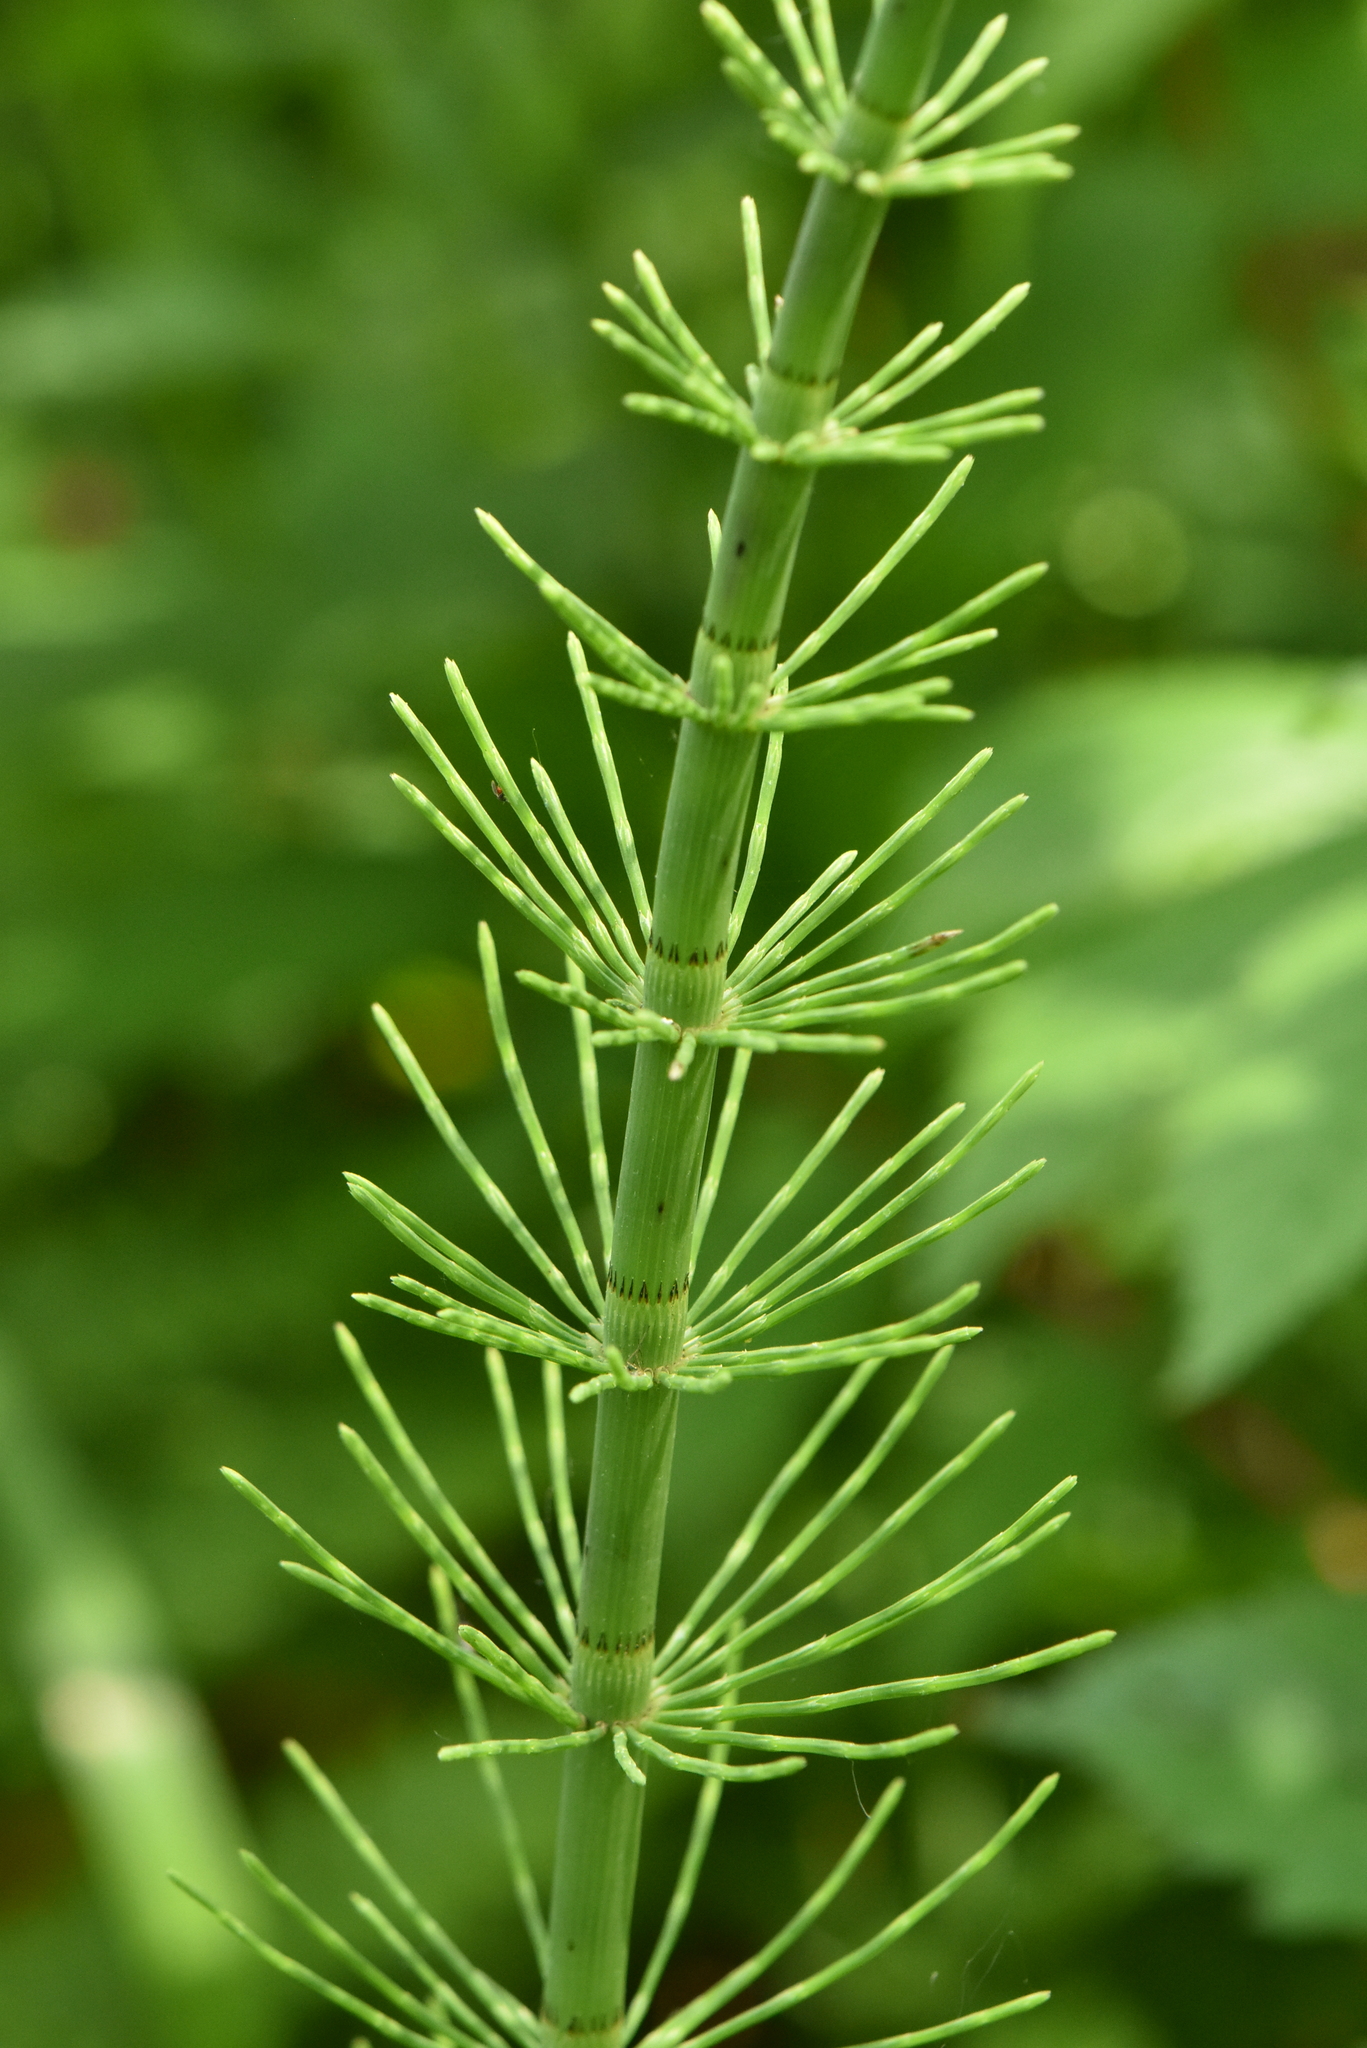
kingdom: Plantae
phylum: Tracheophyta
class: Polypodiopsida
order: Equisetales
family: Equisetaceae
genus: Equisetum
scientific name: Equisetum fluviatile
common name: Water horsetail
